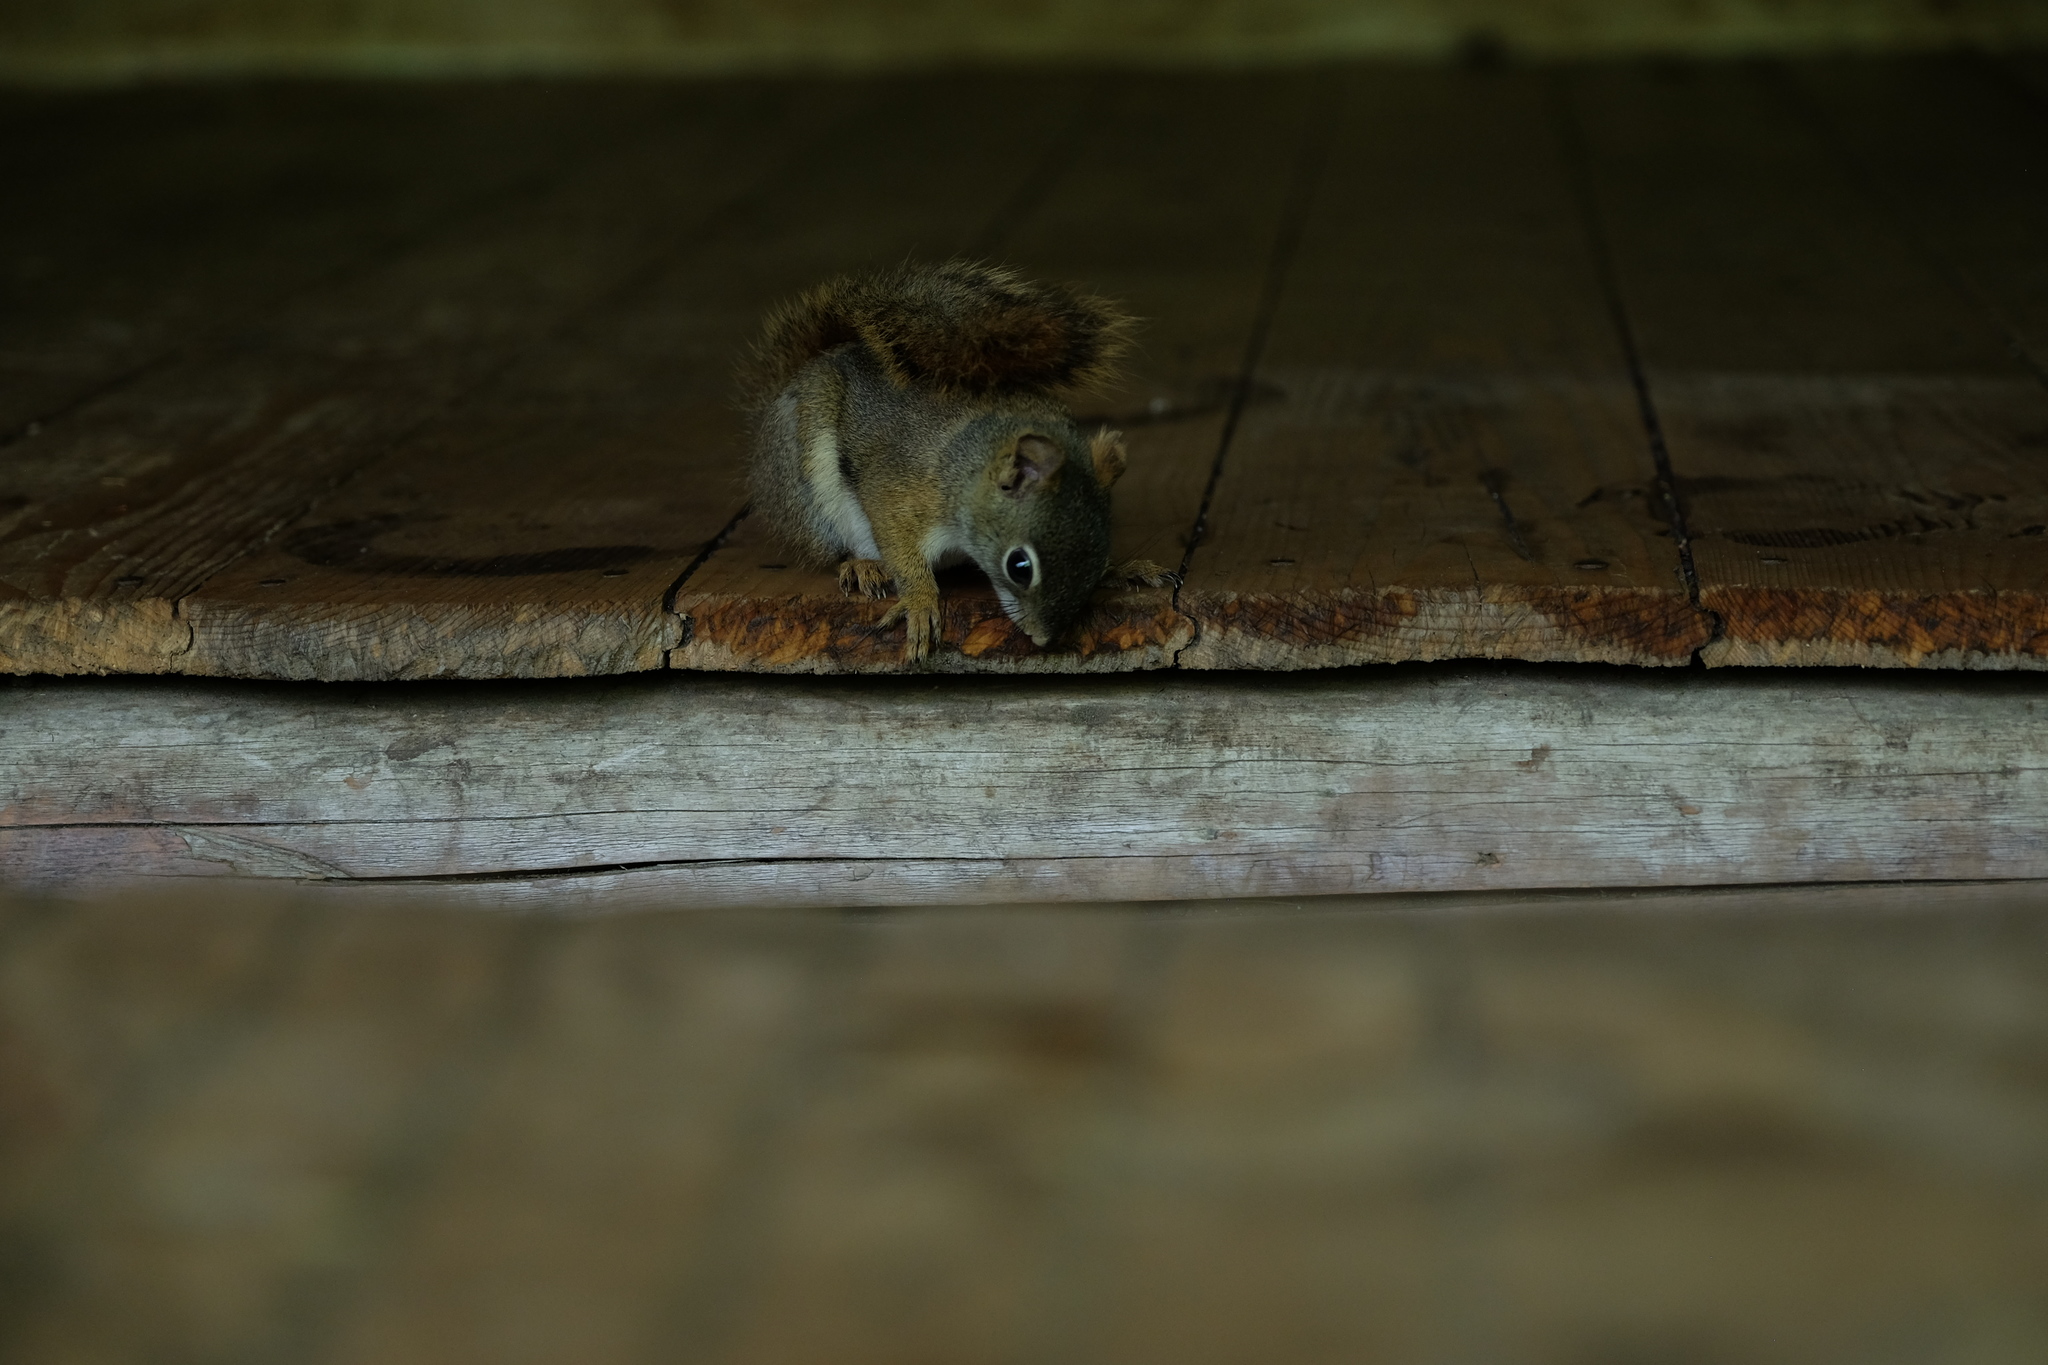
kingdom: Animalia
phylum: Chordata
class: Mammalia
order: Rodentia
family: Sciuridae
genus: Tamiasciurus
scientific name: Tamiasciurus hudsonicus
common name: Red squirrel
